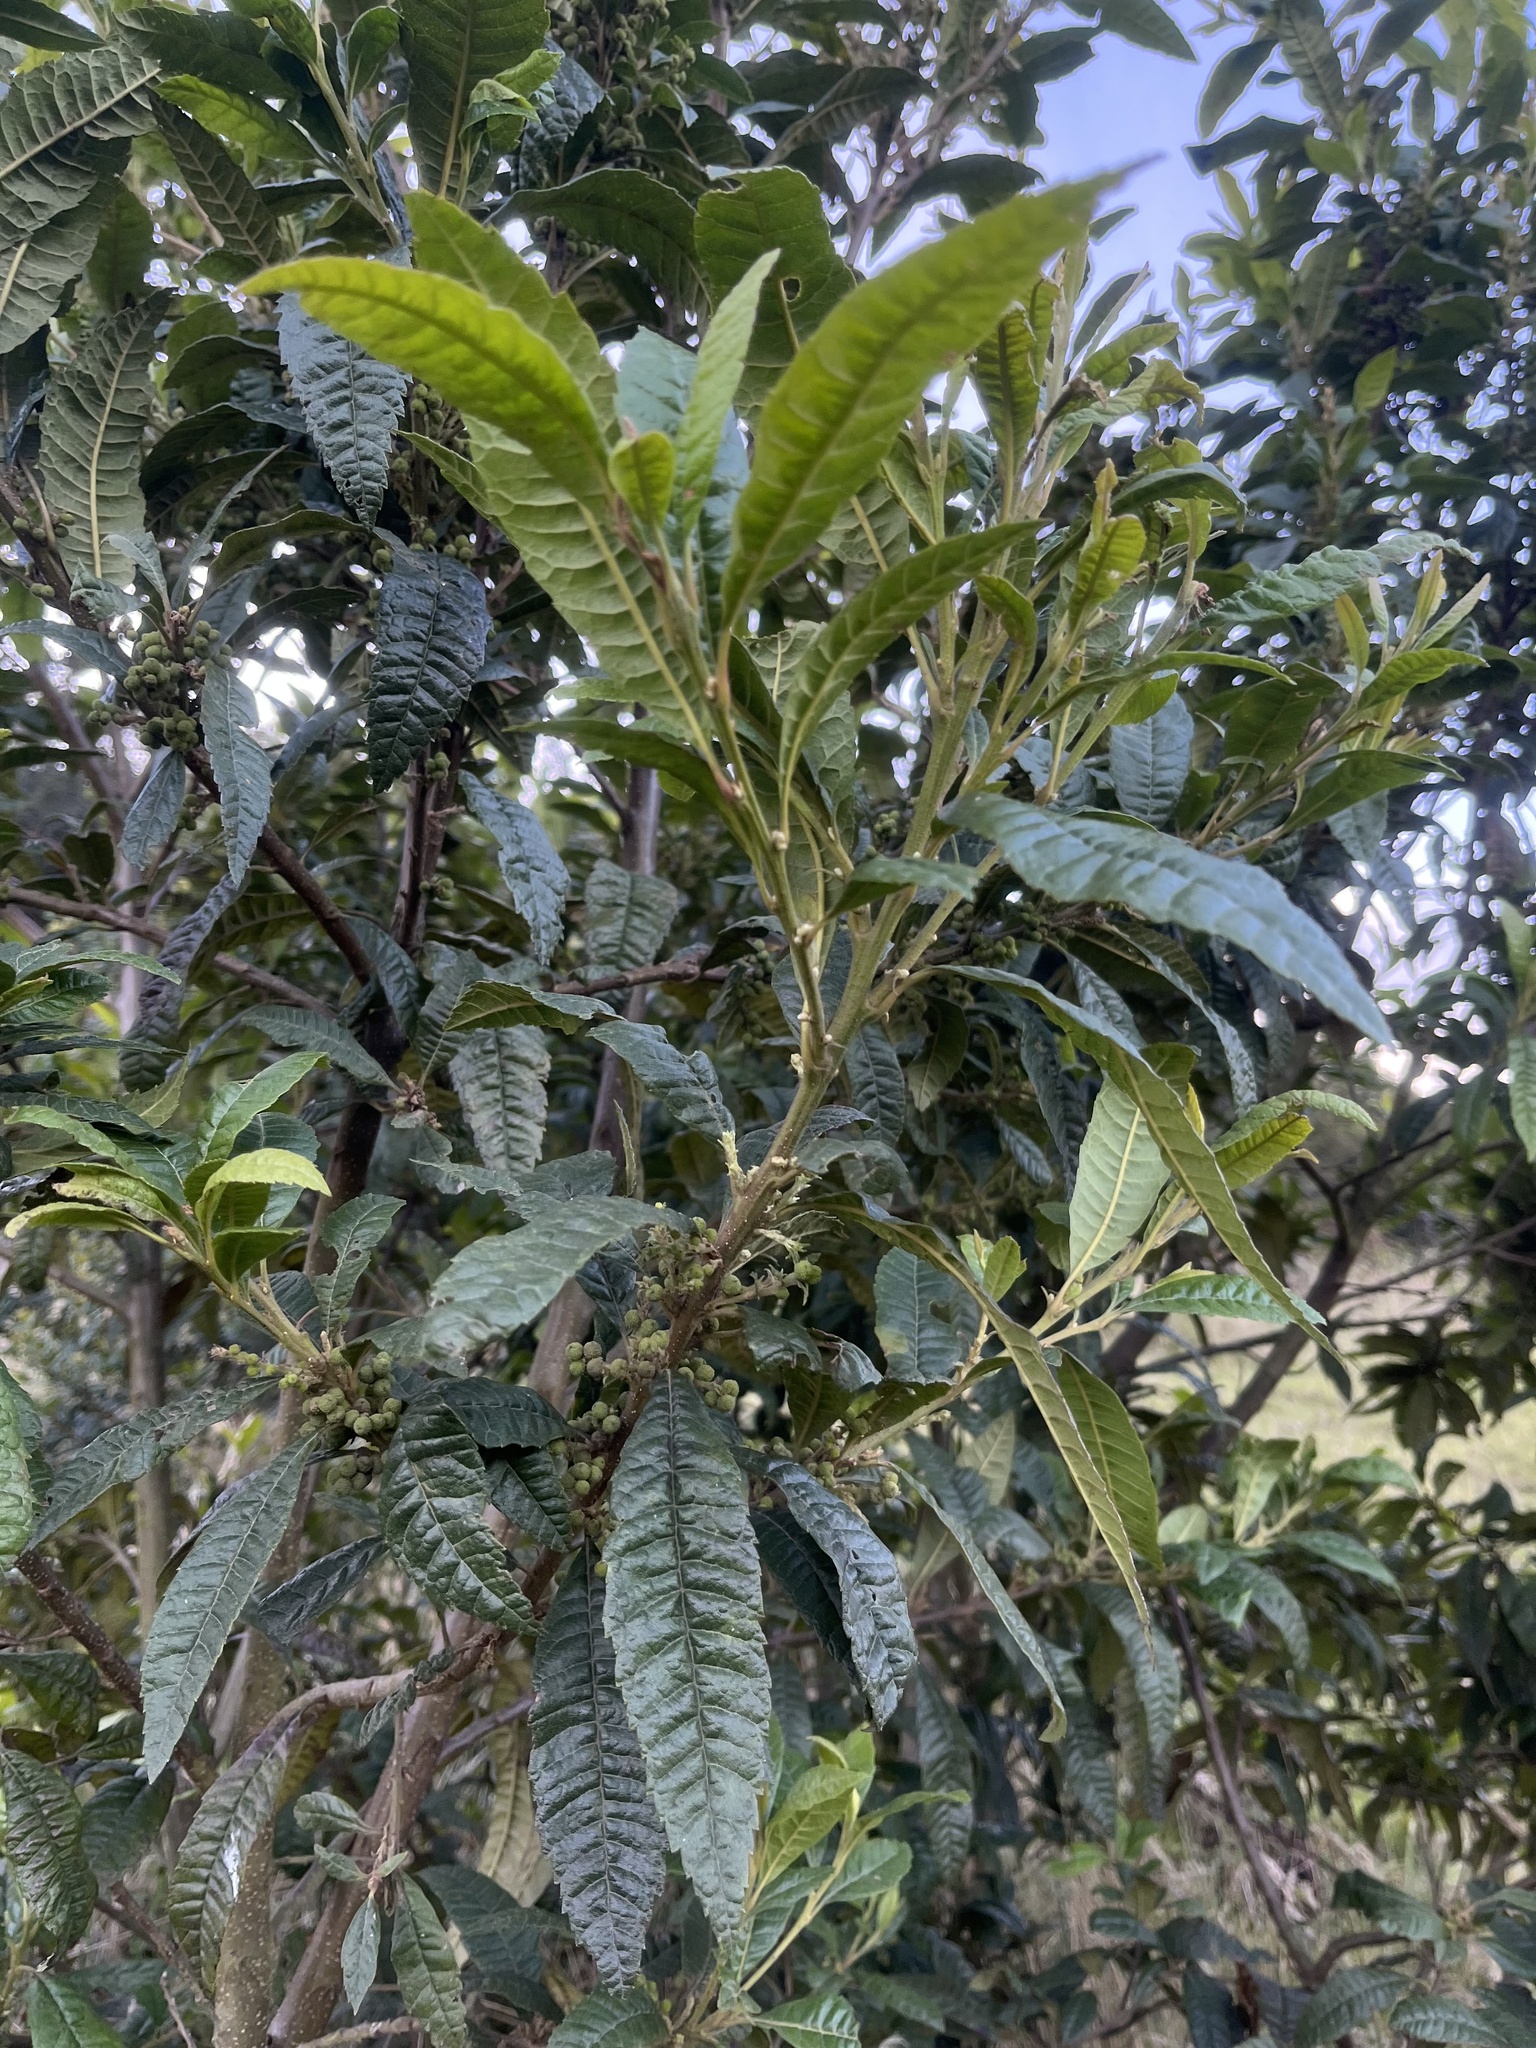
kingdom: Plantae
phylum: Tracheophyta
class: Magnoliopsida
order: Fagales
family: Myricaceae
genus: Morella
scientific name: Morella pubescens
